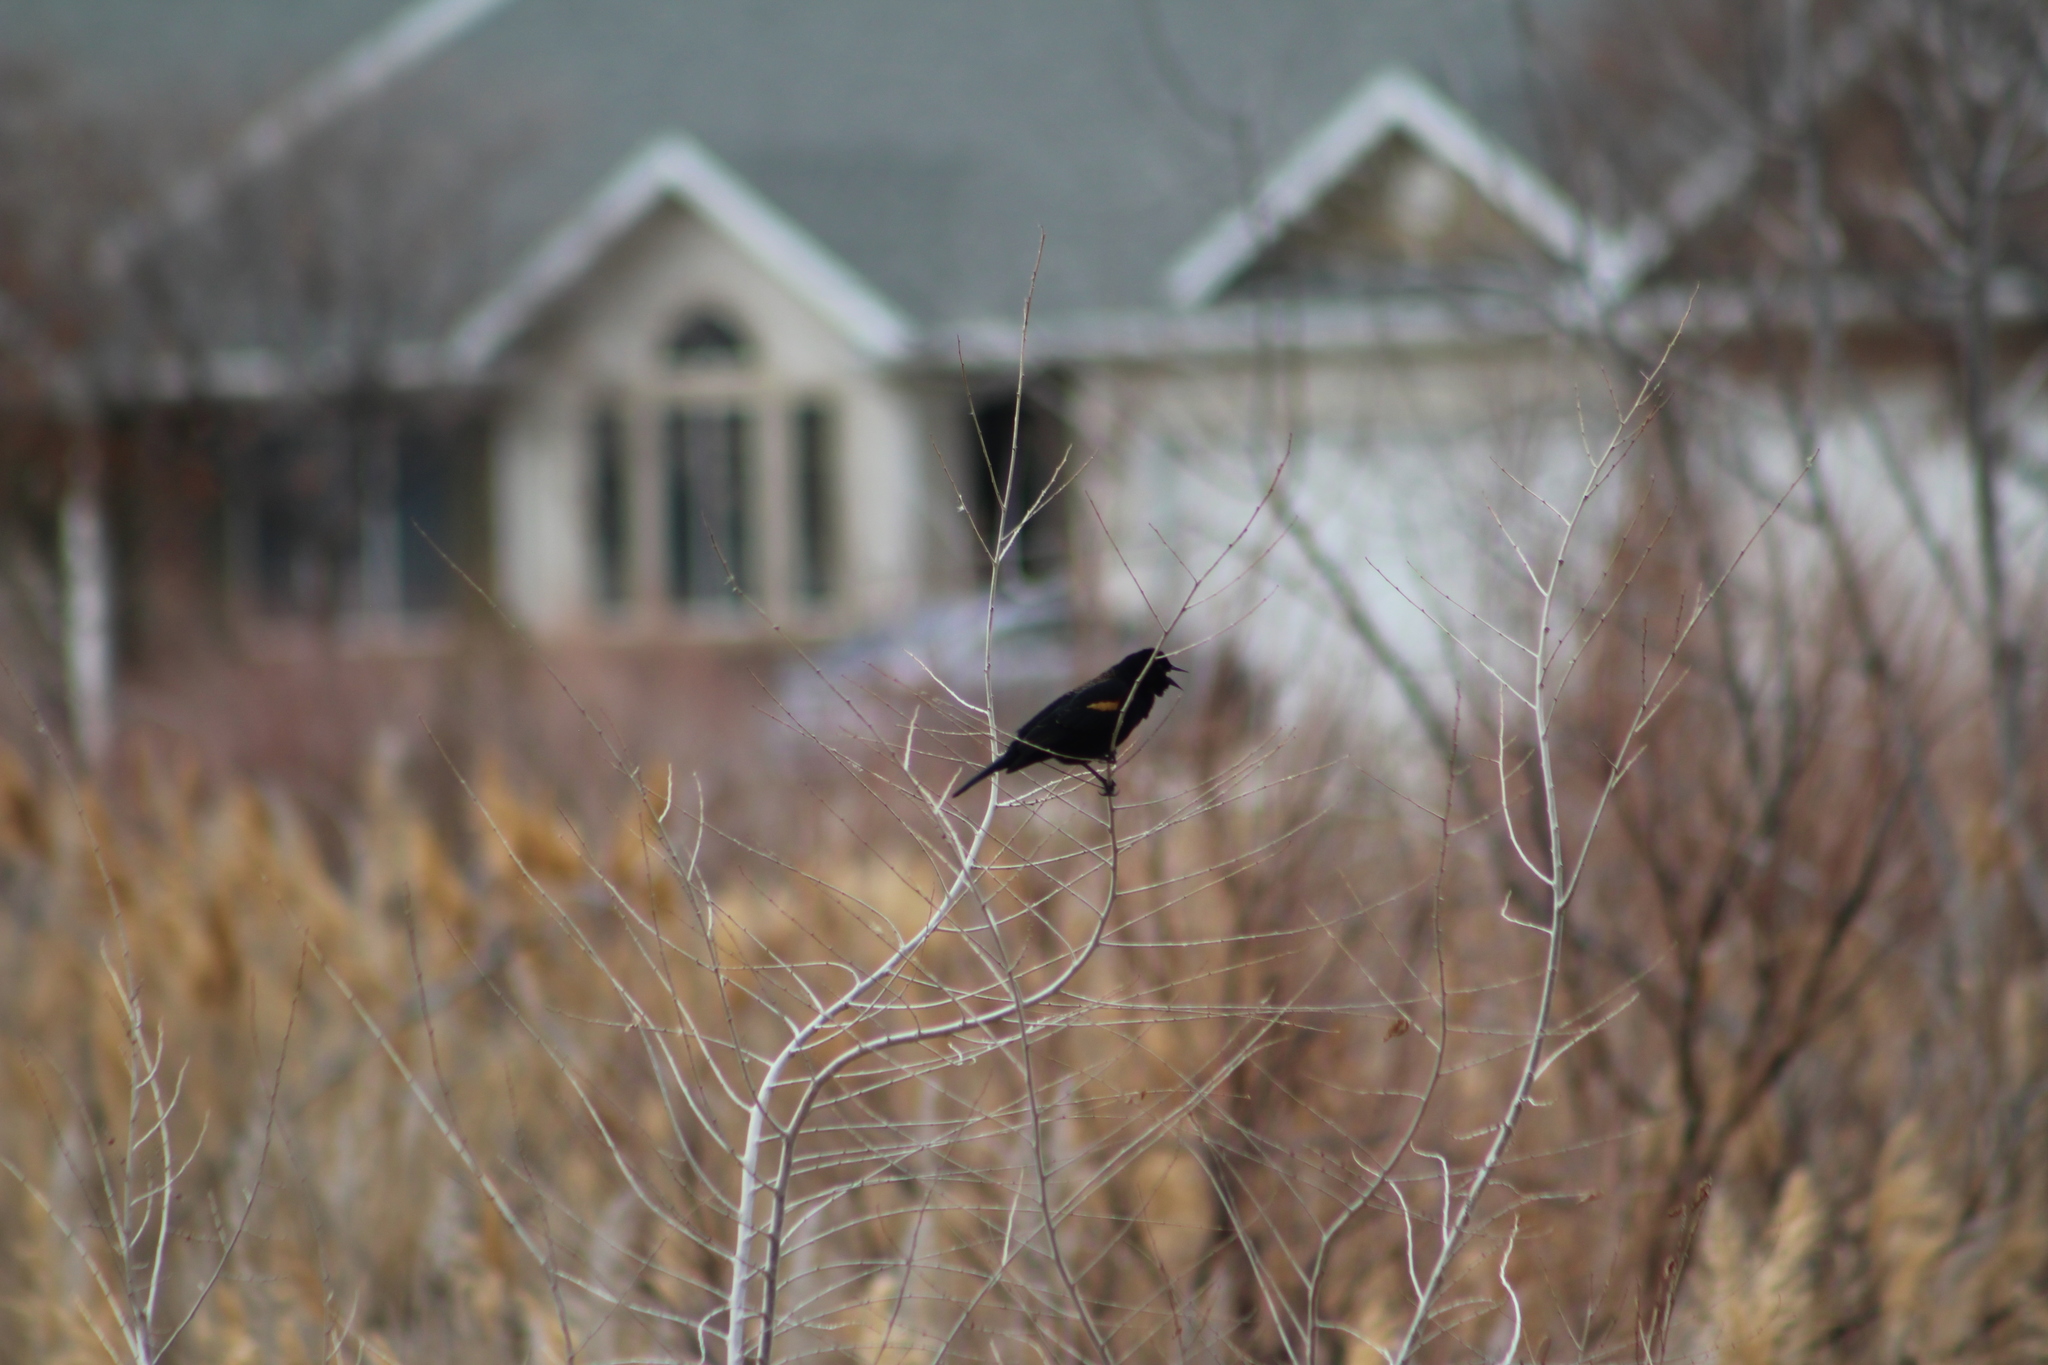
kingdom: Animalia
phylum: Chordata
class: Aves
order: Passeriformes
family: Icteridae
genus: Agelaius
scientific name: Agelaius phoeniceus
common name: Red-winged blackbird
